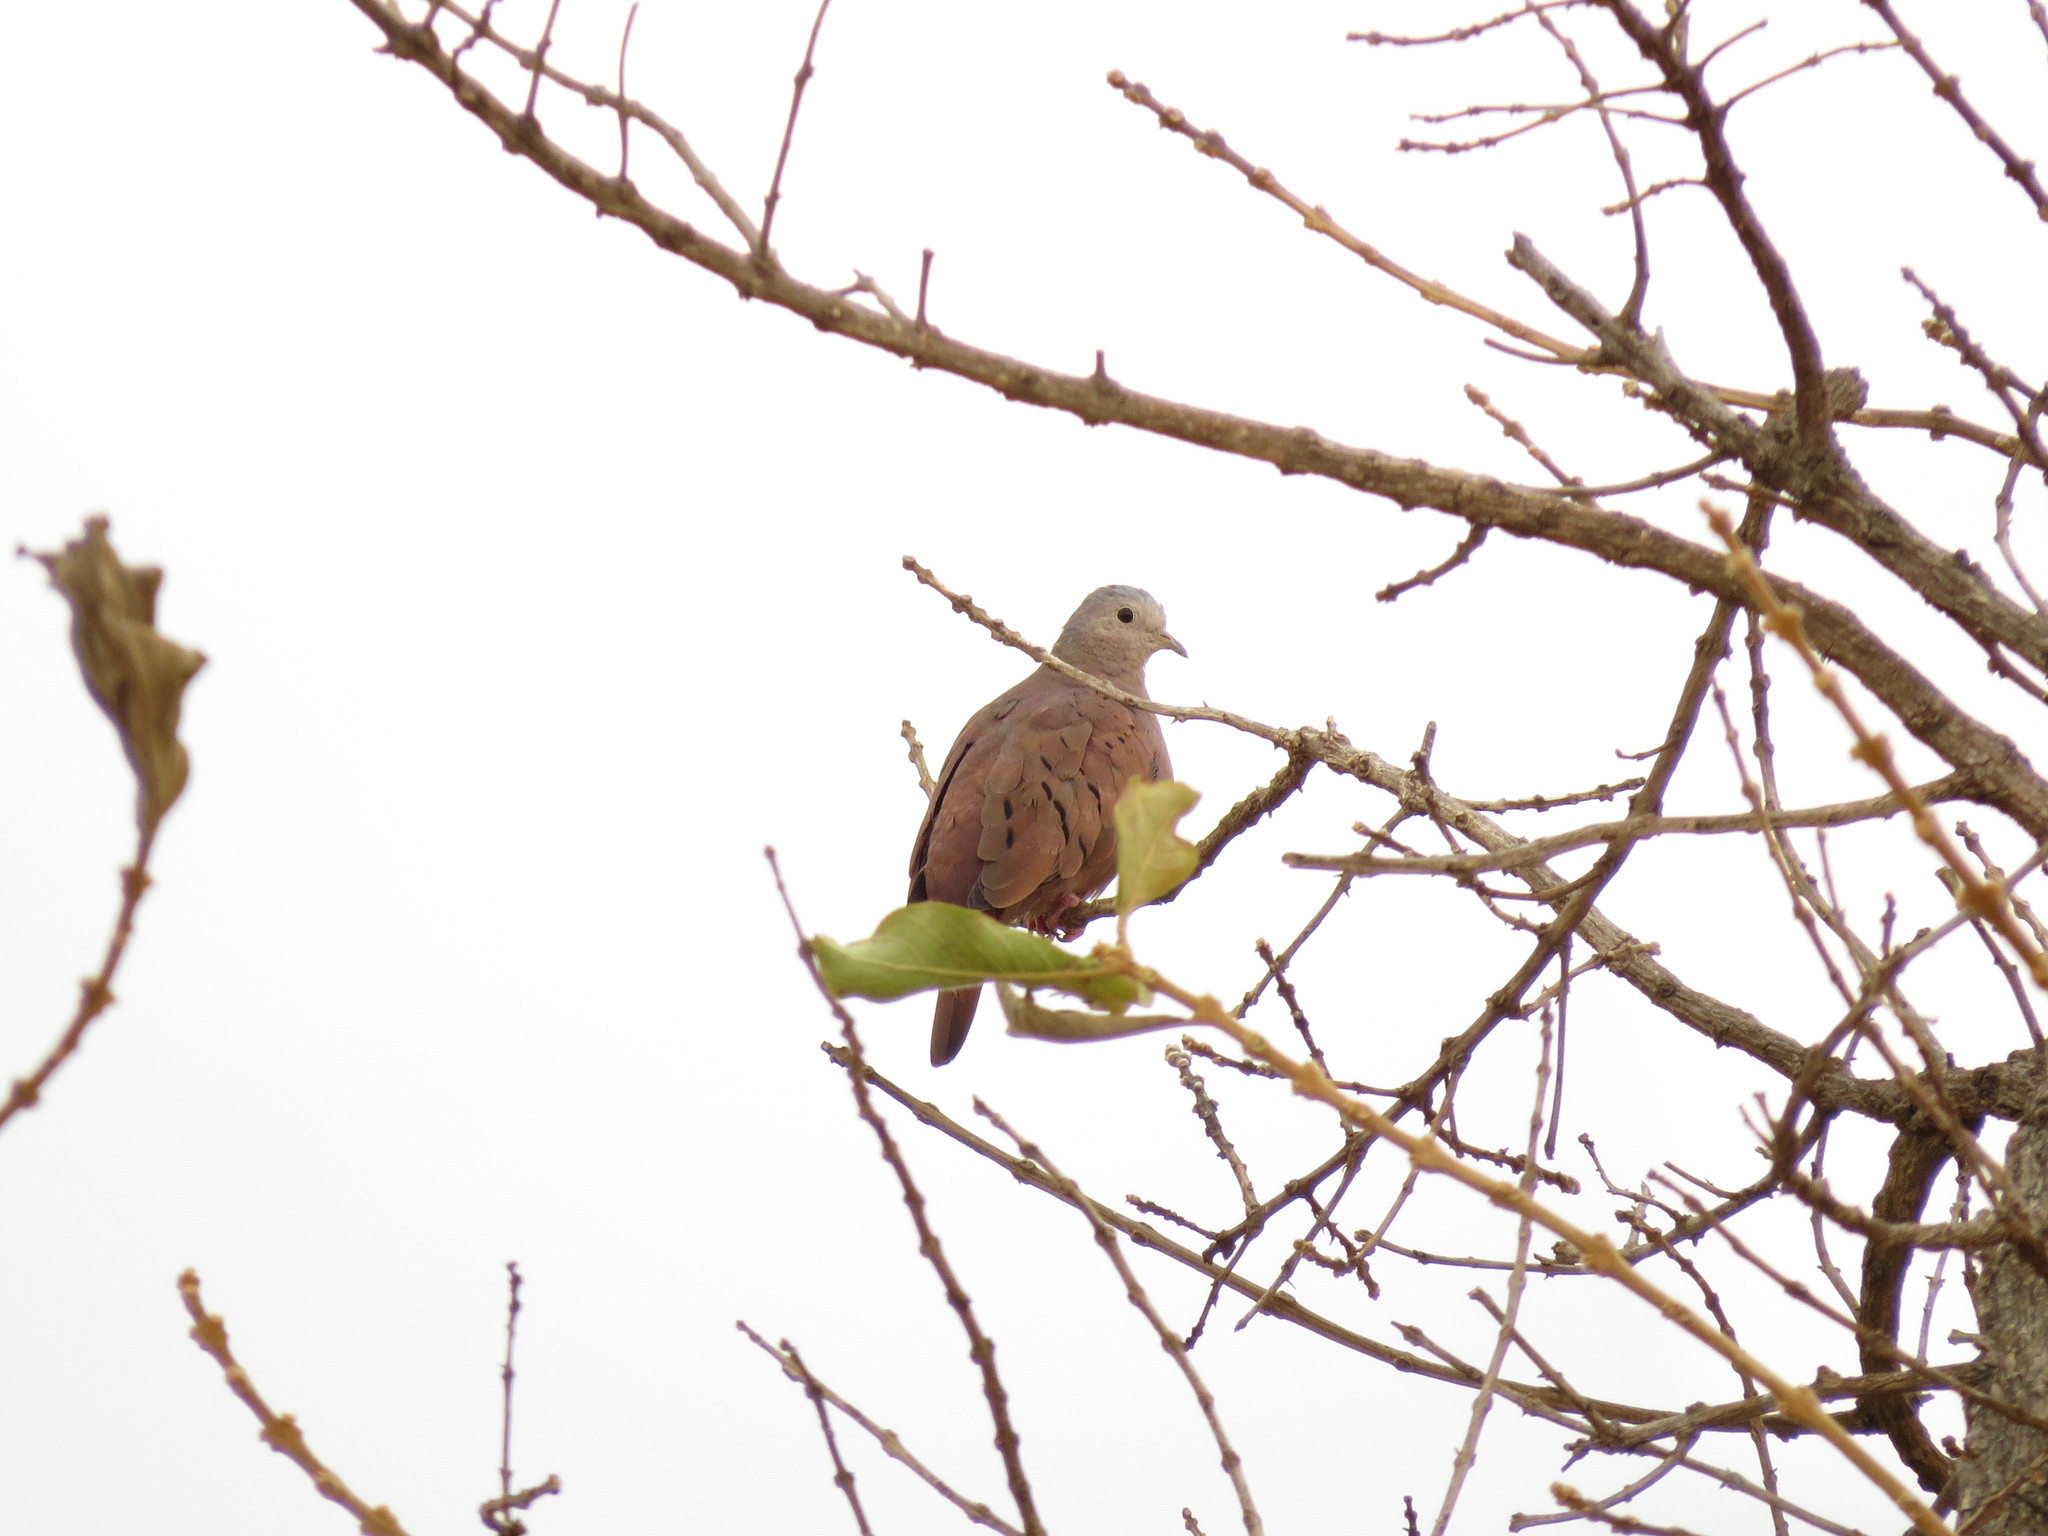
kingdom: Animalia
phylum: Chordata
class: Aves
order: Columbiformes
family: Columbidae
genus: Columbina
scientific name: Columbina talpacoti
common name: Ruddy ground dove
